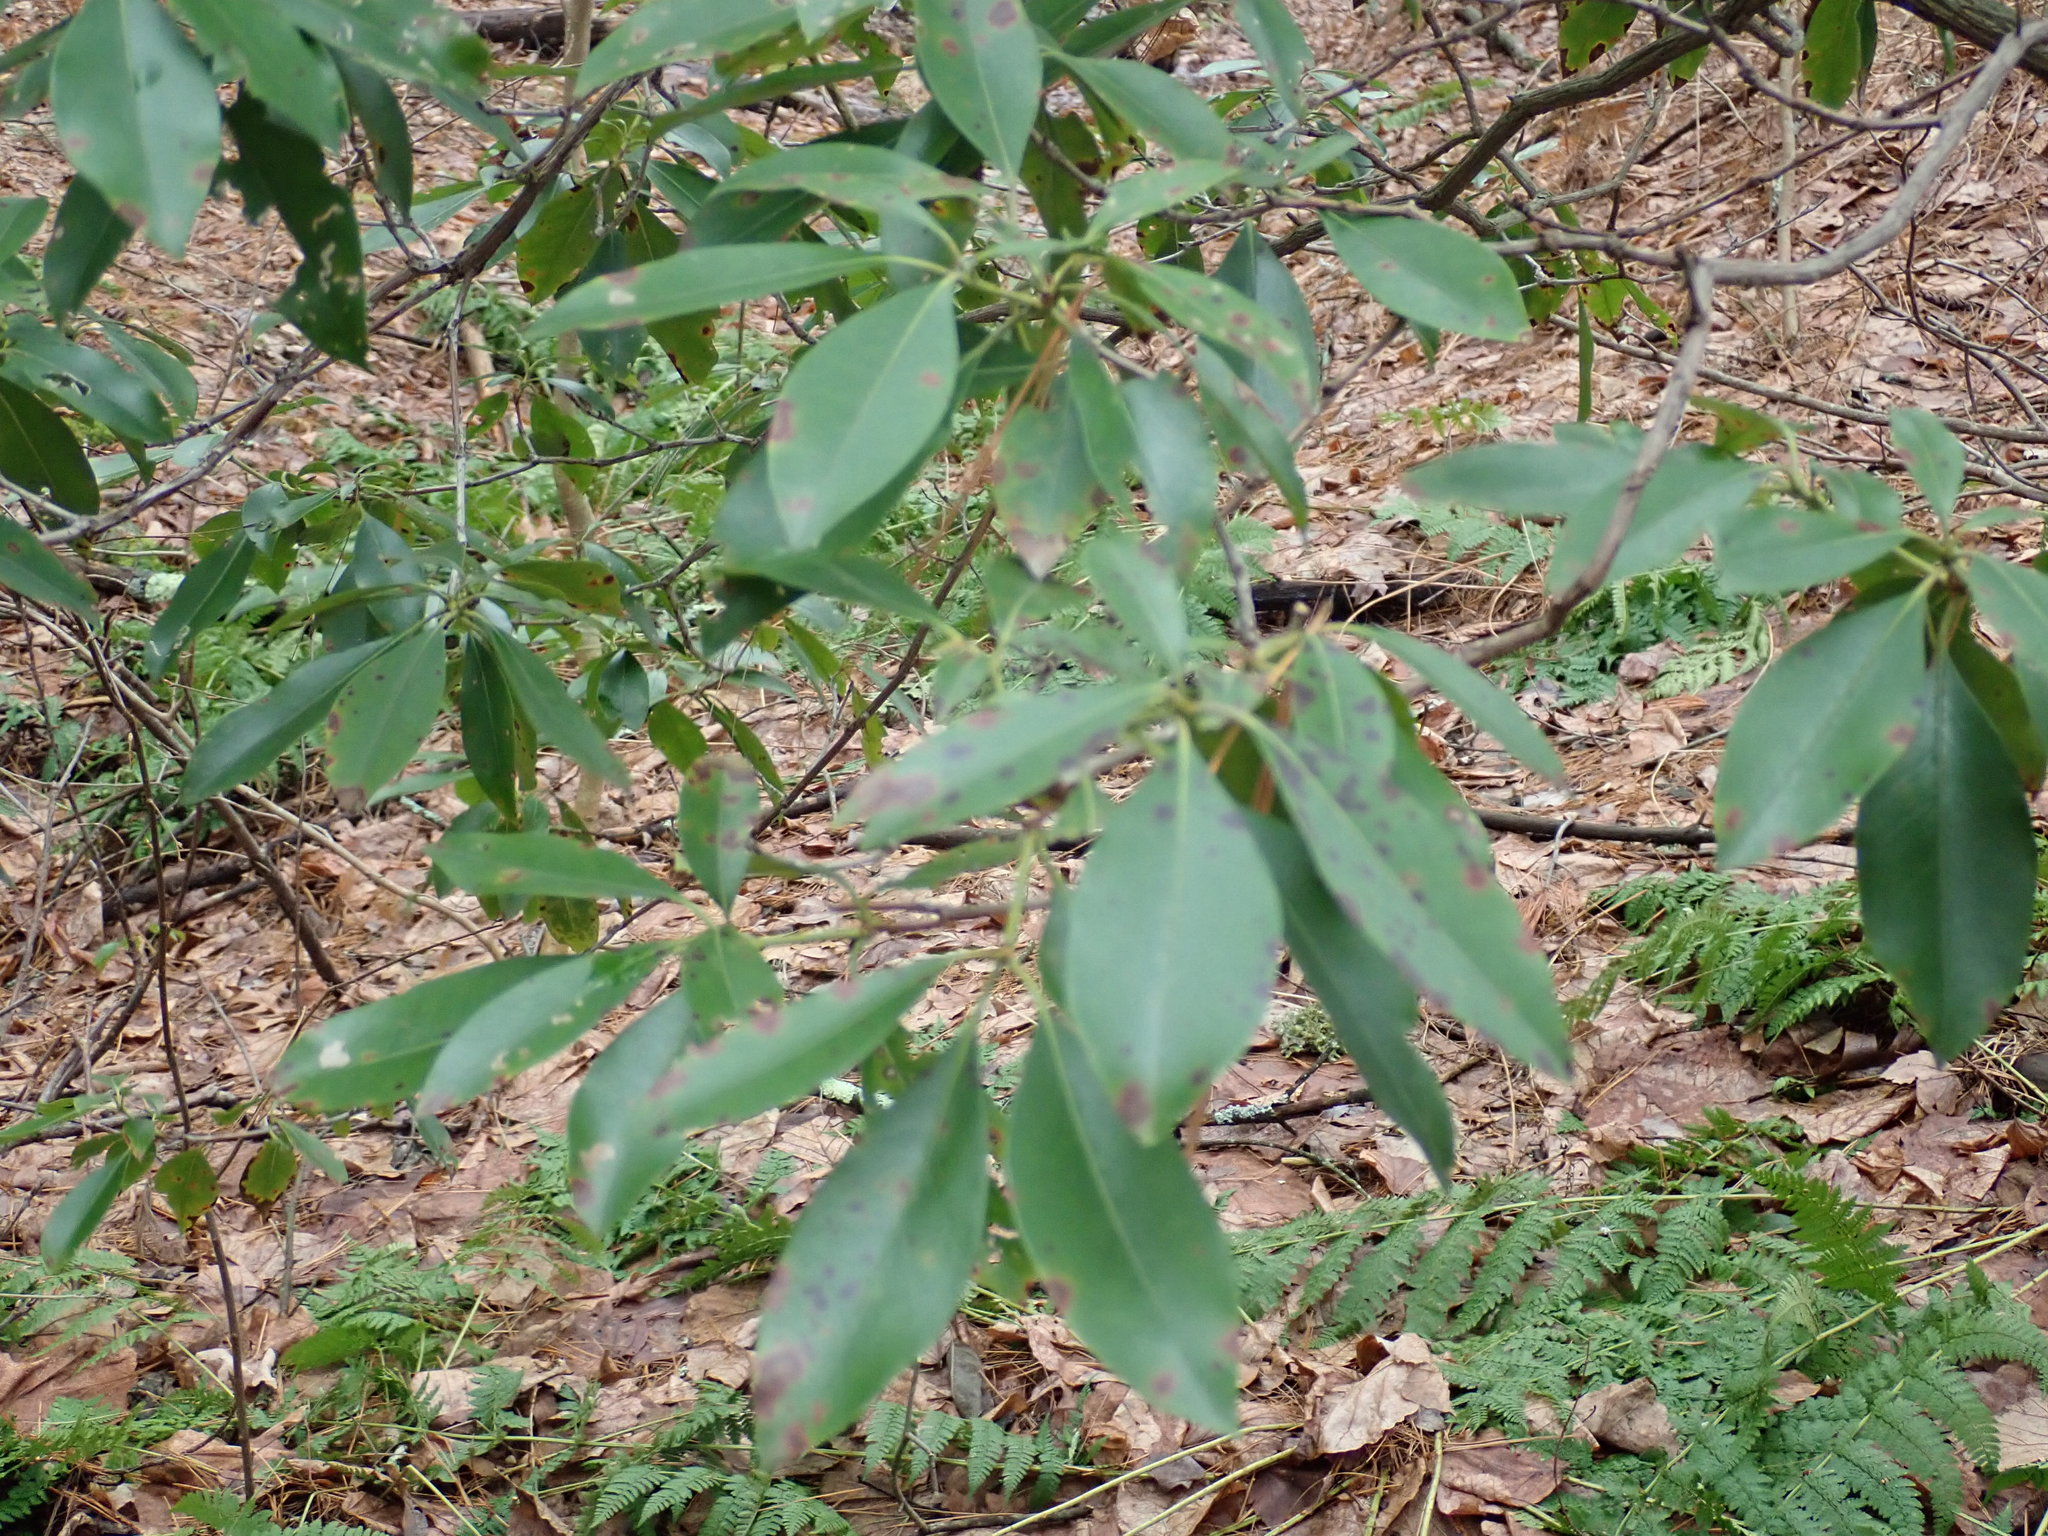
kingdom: Plantae
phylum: Tracheophyta
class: Magnoliopsida
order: Ericales
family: Ericaceae
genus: Kalmia
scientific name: Kalmia latifolia
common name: Mountain-laurel
